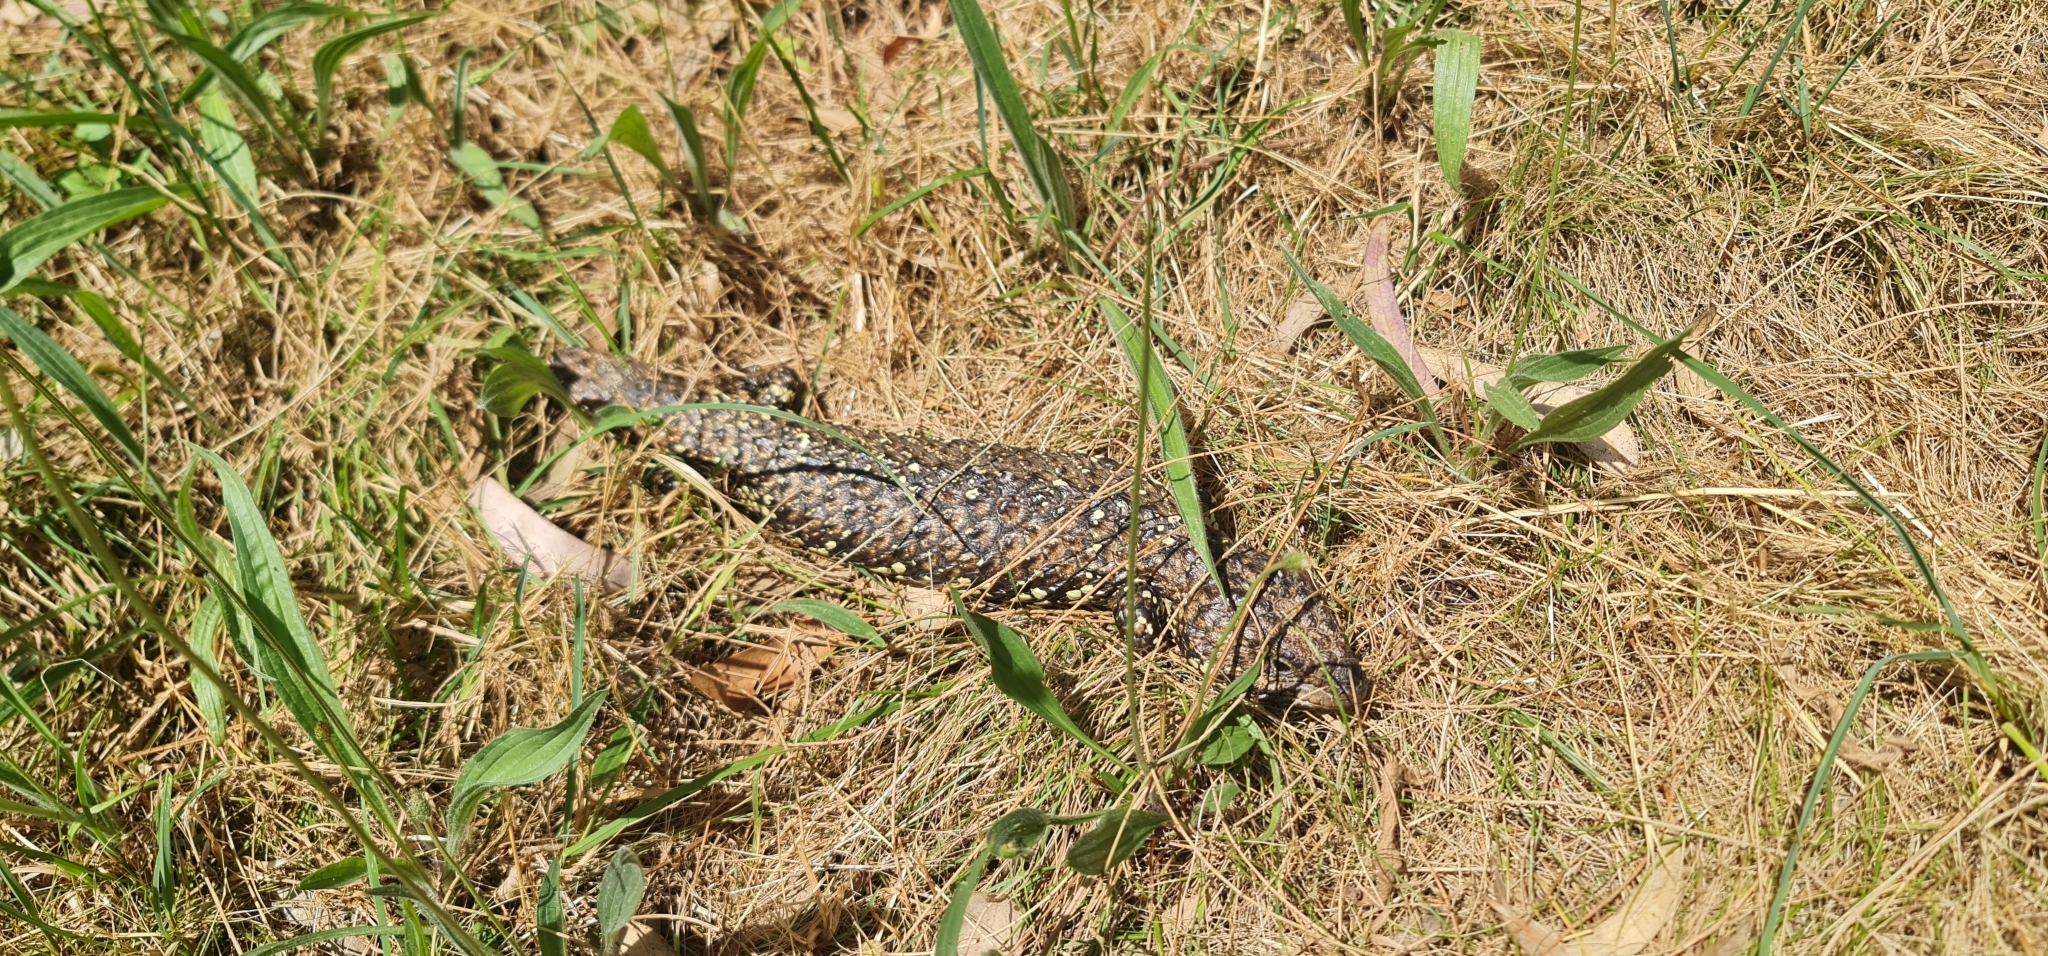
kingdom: Animalia
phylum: Chordata
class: Squamata
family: Scincidae
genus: Tiliqua
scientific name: Tiliqua rugosa
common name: Pinecone lizard
